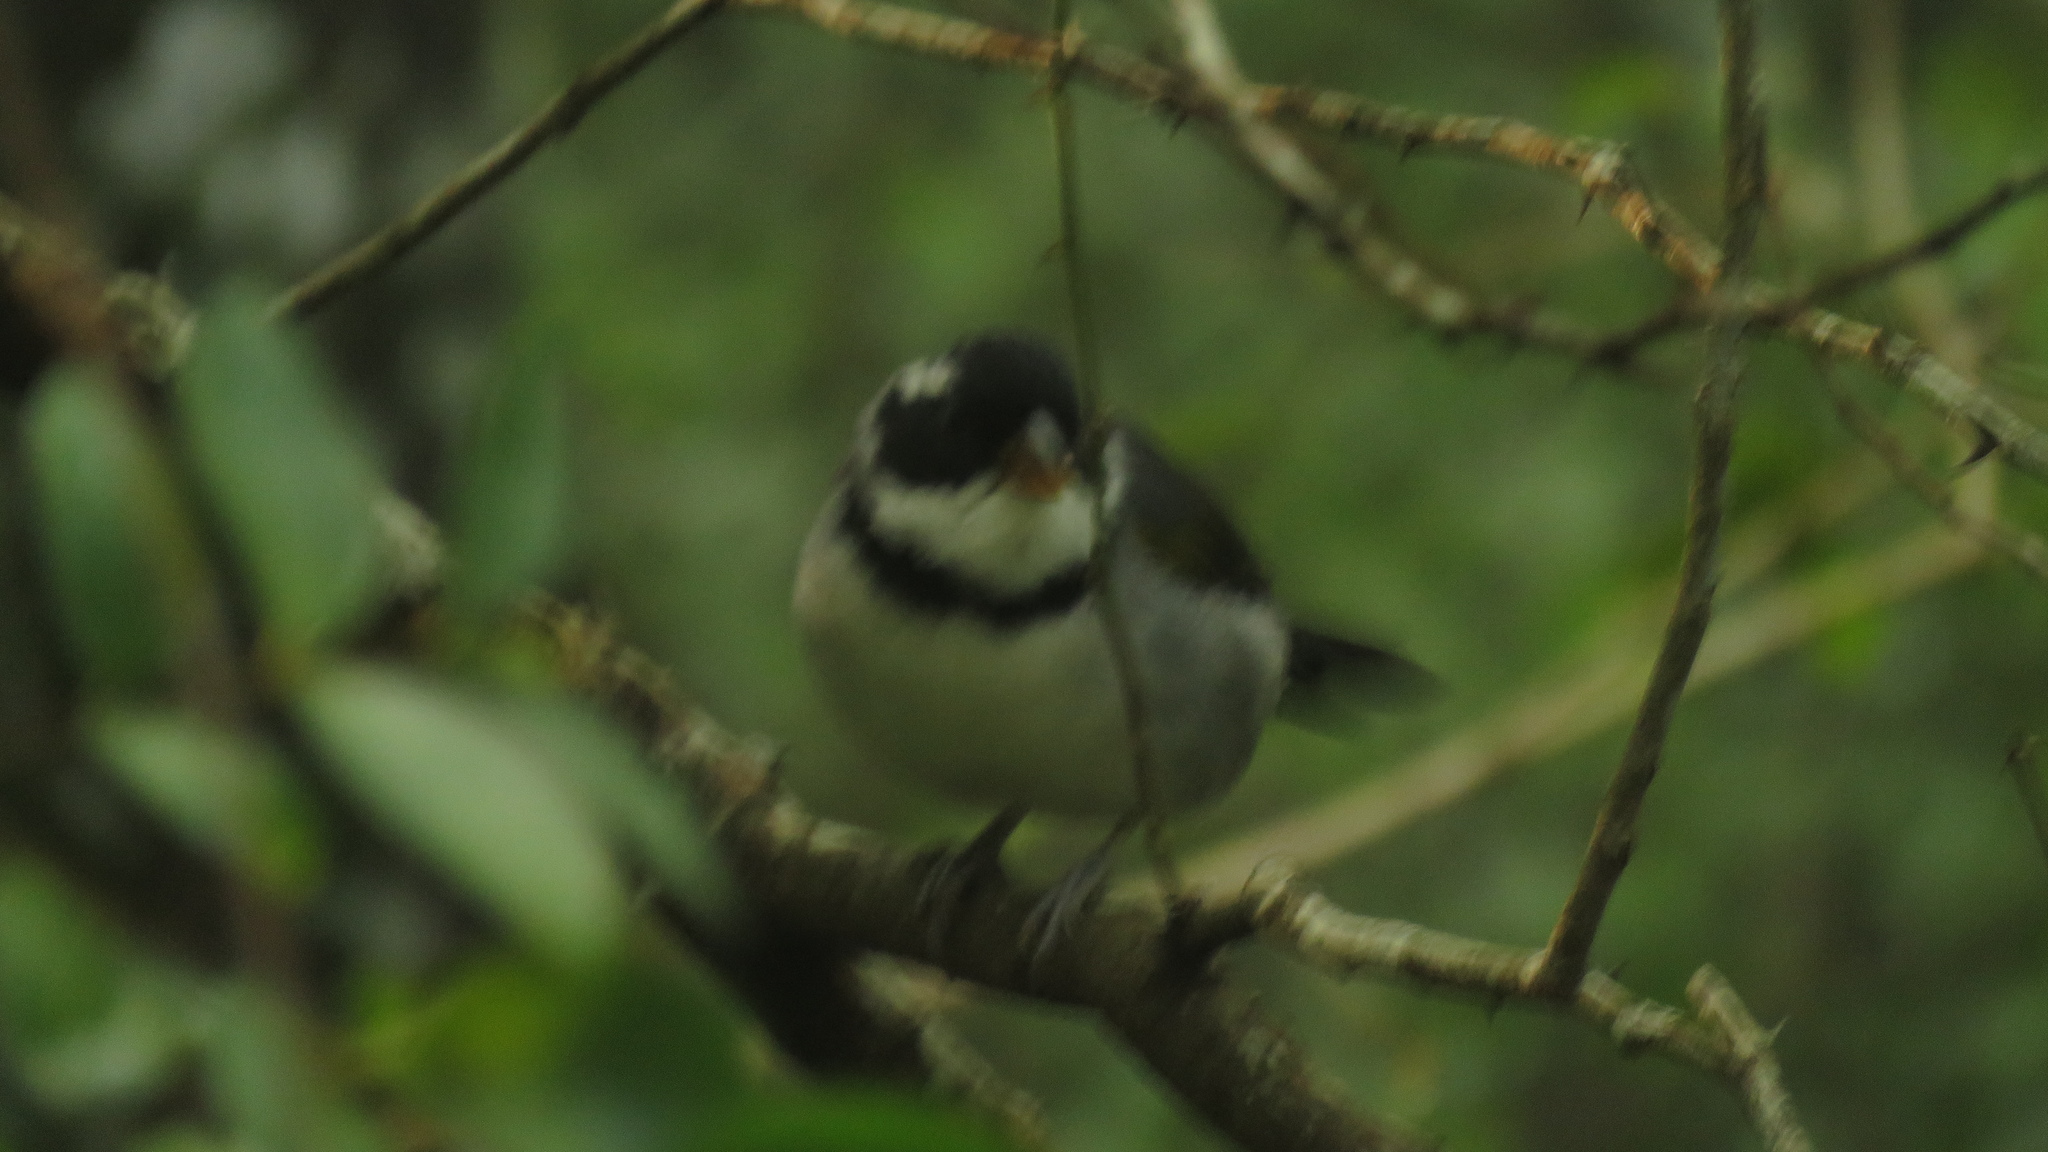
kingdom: Animalia
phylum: Chordata
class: Aves
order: Passeriformes
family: Passerellidae
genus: Arremon
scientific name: Arremon flavirostris
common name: Saffron-billed sparrow
